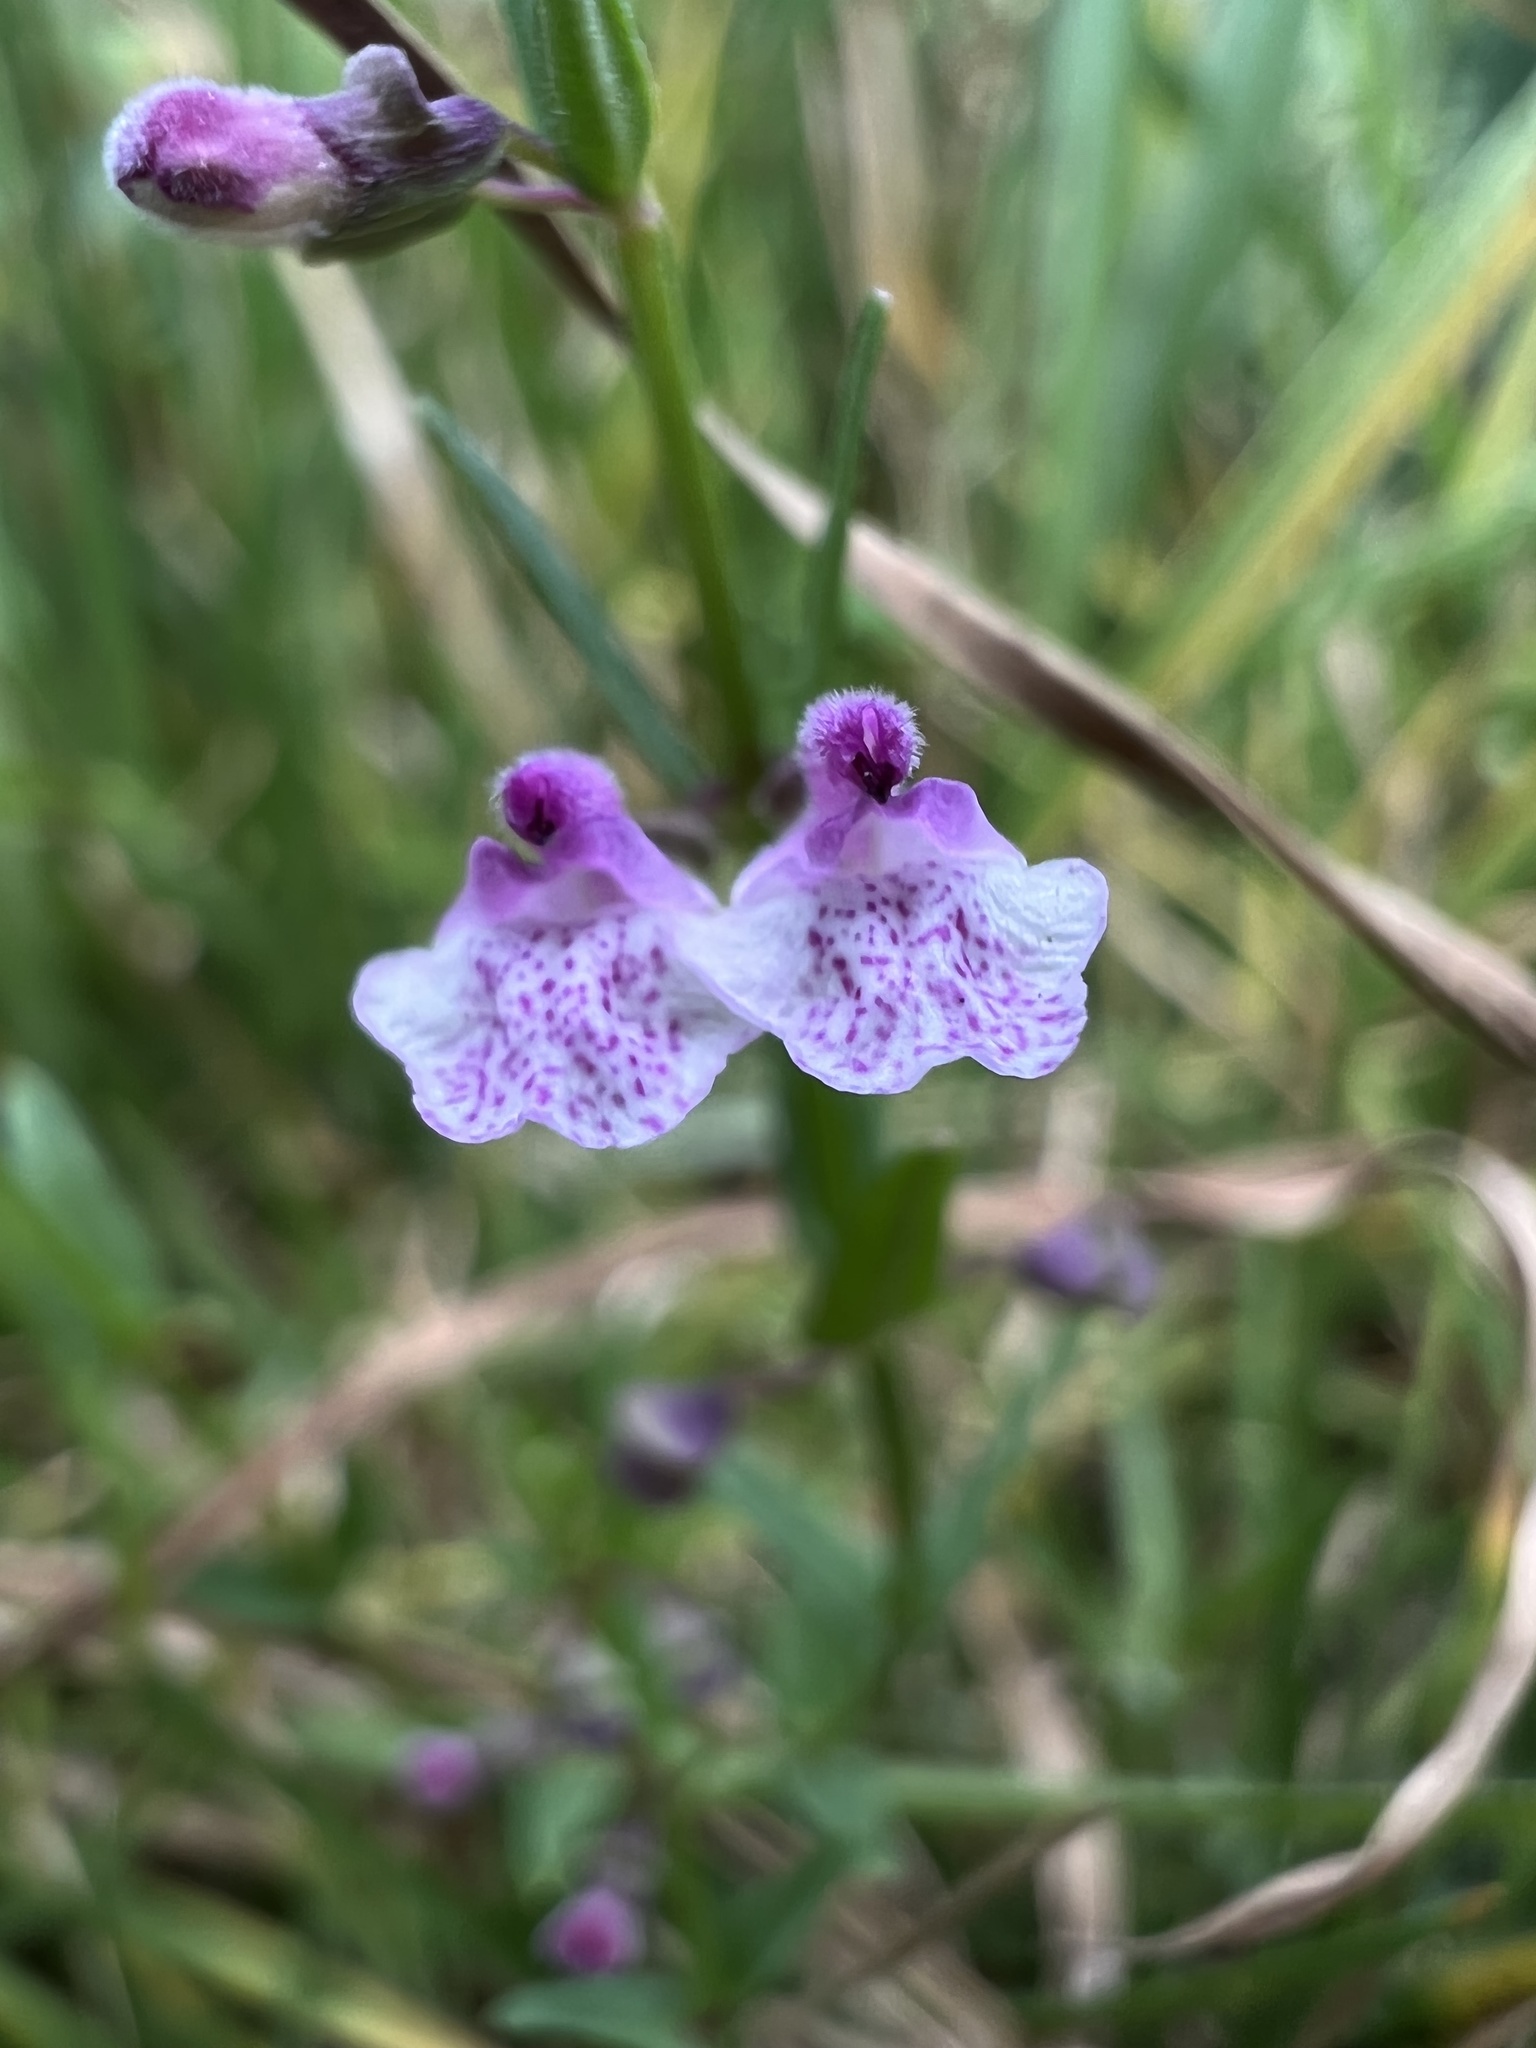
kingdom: Plantae
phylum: Tracheophyta
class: Magnoliopsida
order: Lamiales
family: Lamiaceae
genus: Scutellaria
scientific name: Scutellaria racemosa
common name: South american skullcap
